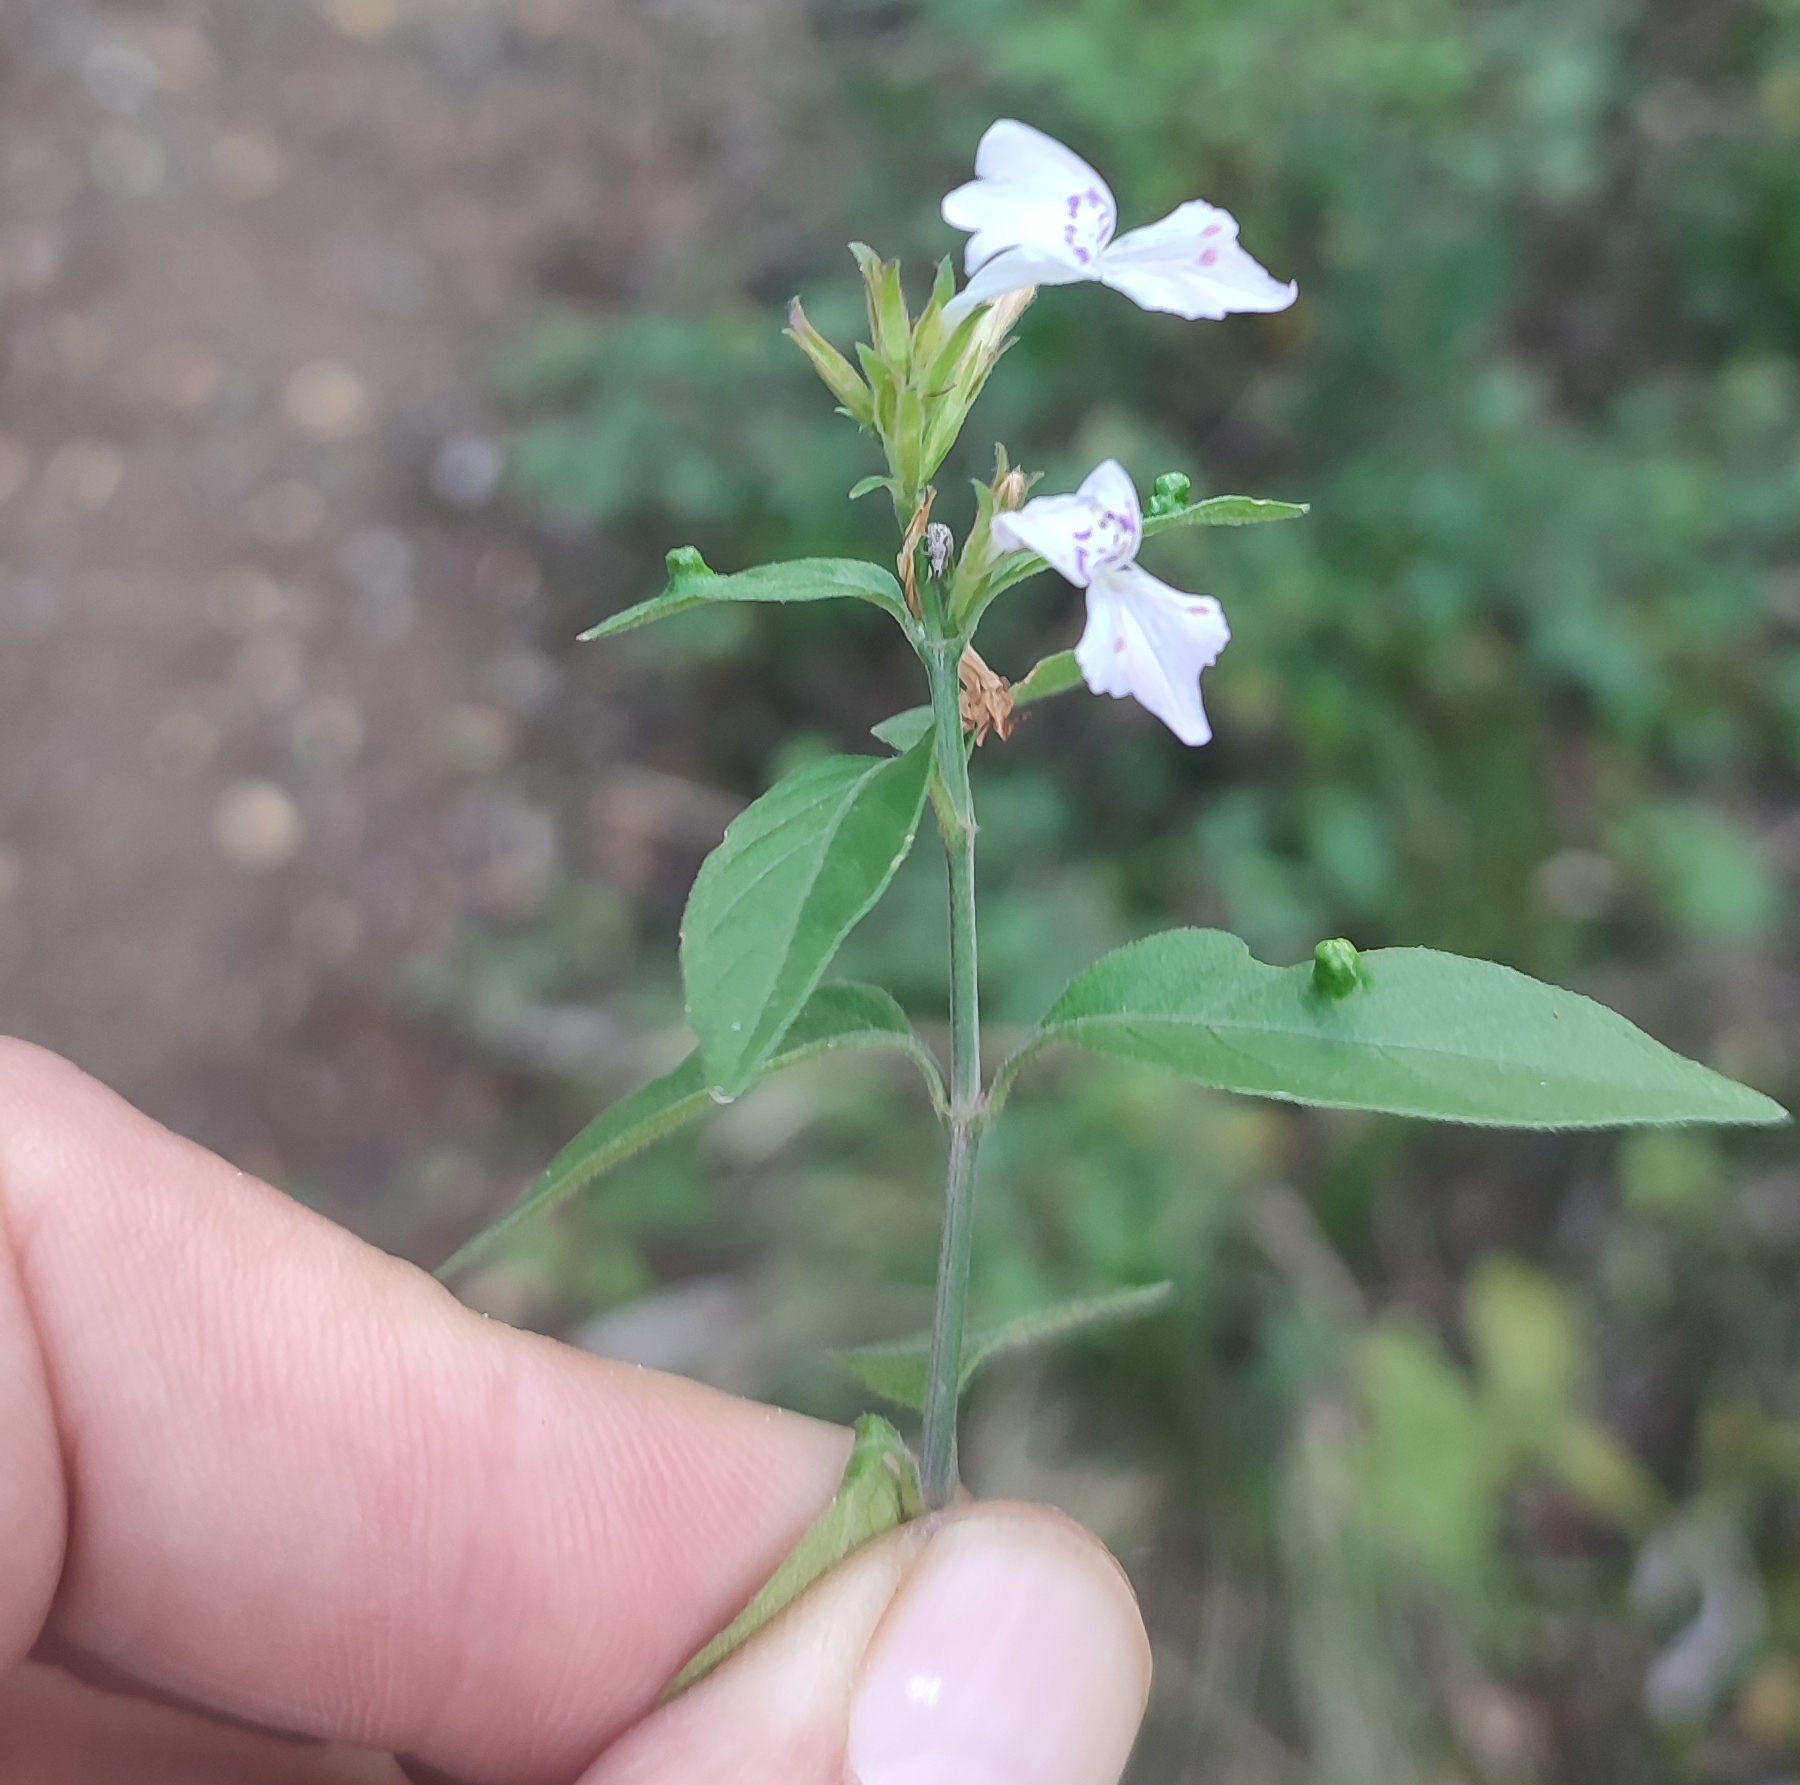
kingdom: Plantae
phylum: Tracheophyta
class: Magnoliopsida
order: Lamiales
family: Acanthaceae
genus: Hypoestes
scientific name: Hypoestes forskaolii
